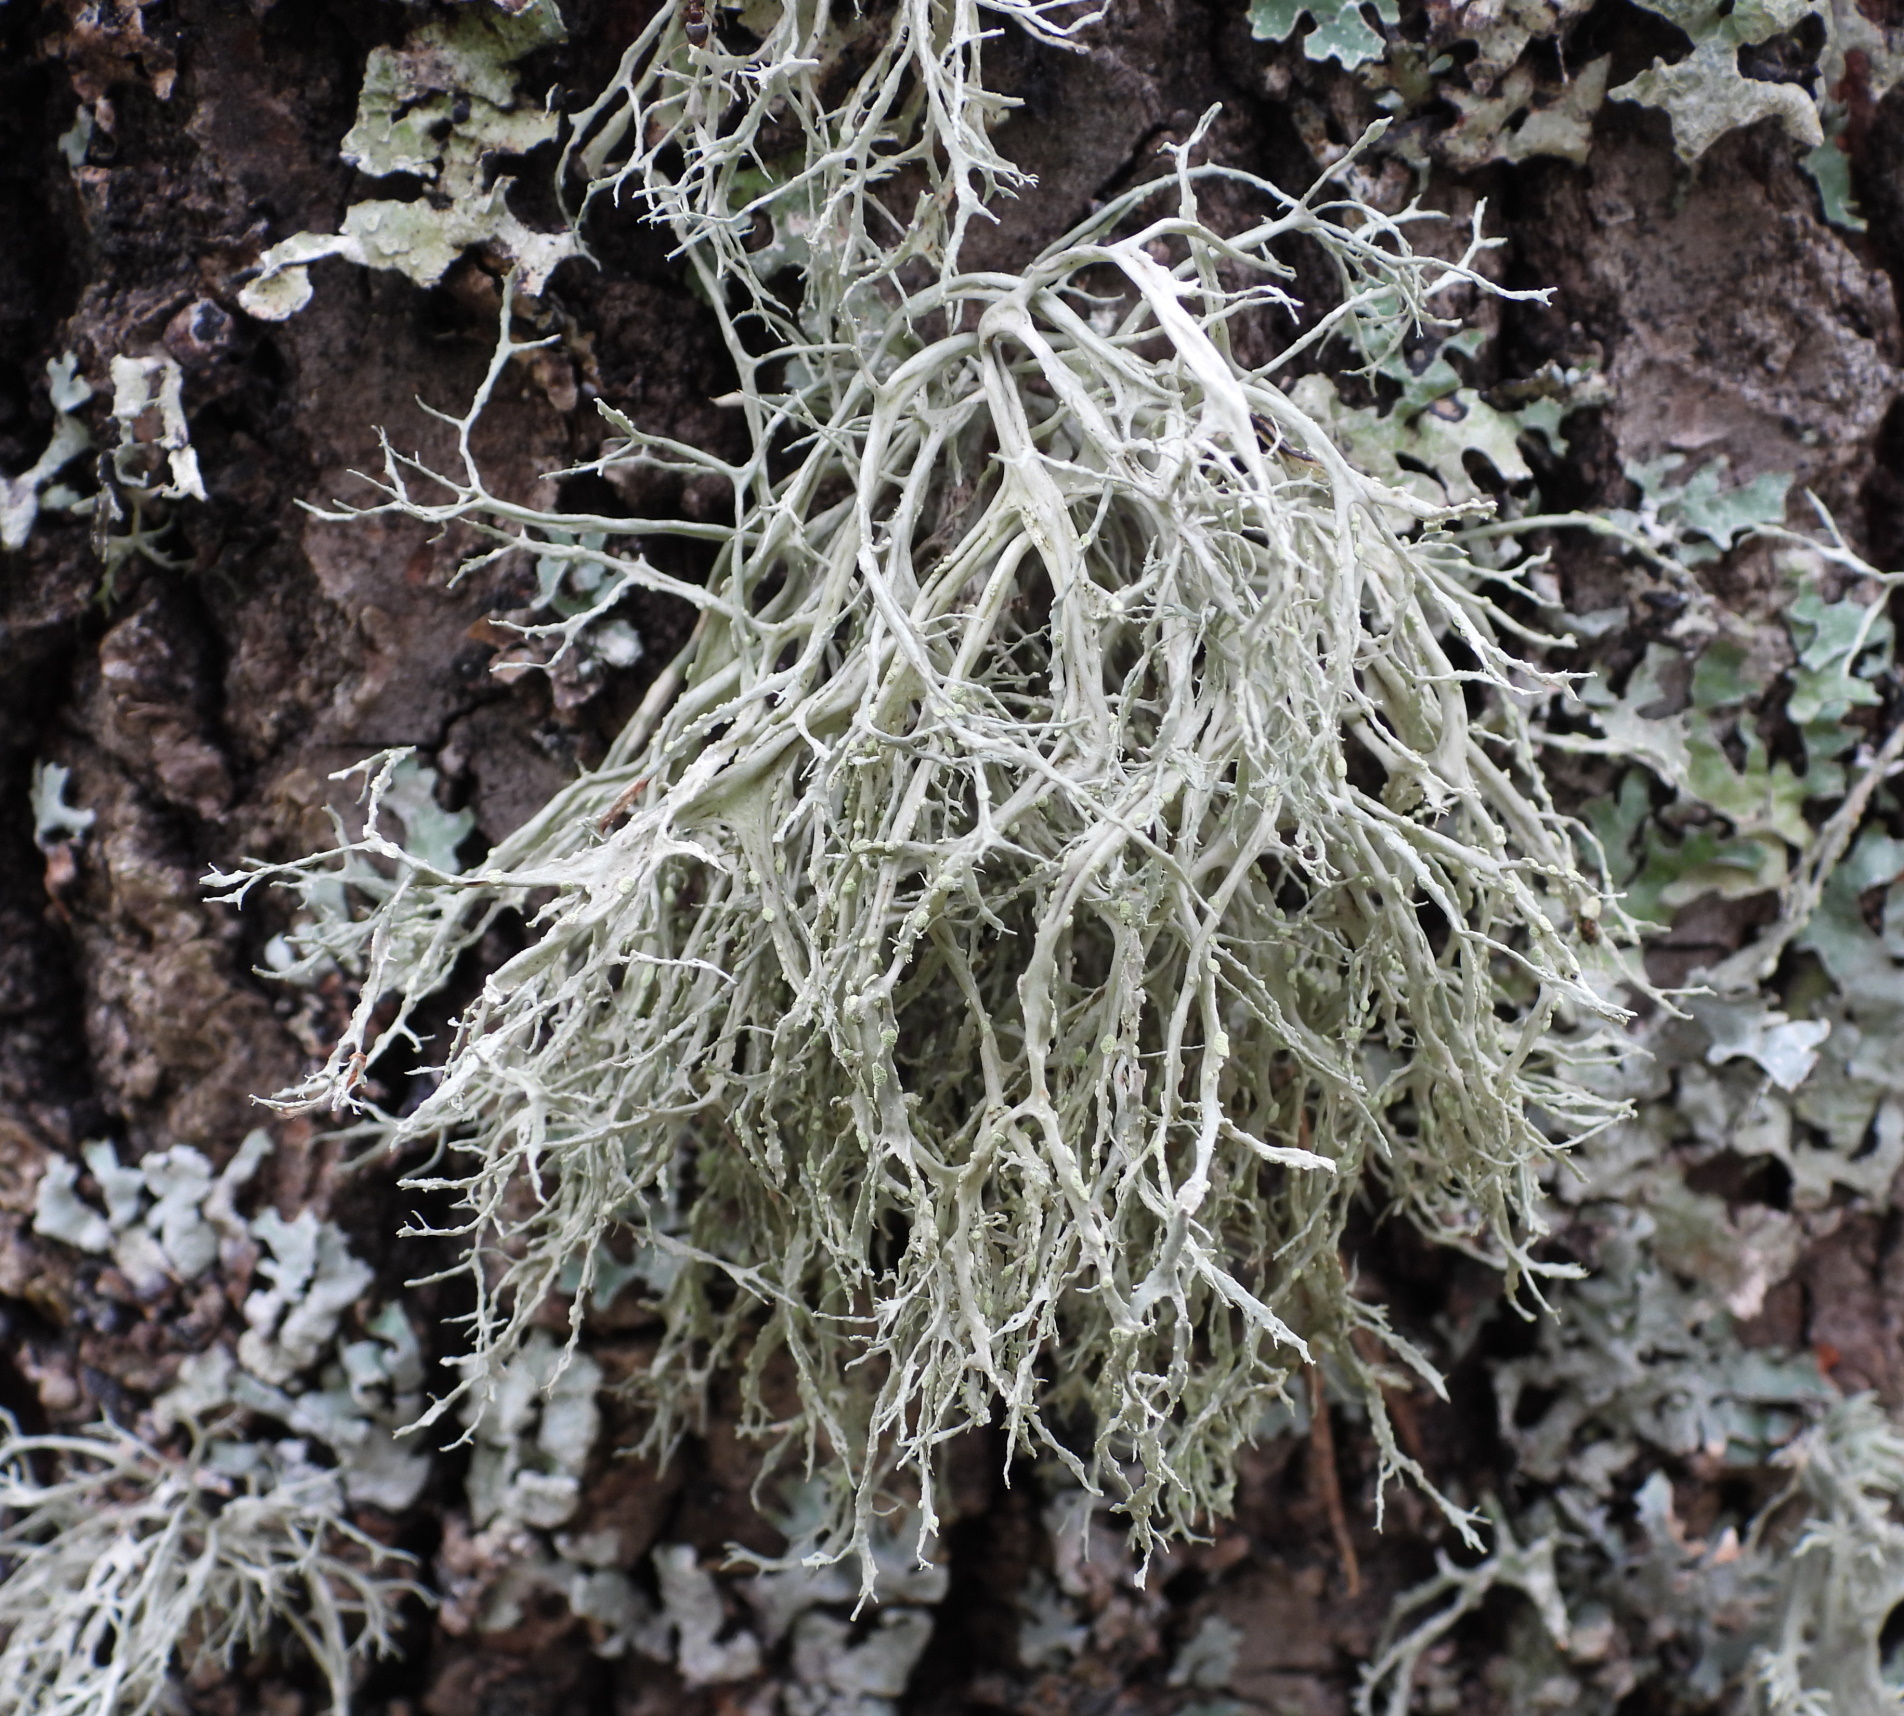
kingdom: Fungi
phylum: Ascomycota
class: Lecanoromycetes
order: Lecanorales
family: Ramalinaceae
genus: Ramalina
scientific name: Ramalina farinacea
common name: Farinose cartilage lichen
